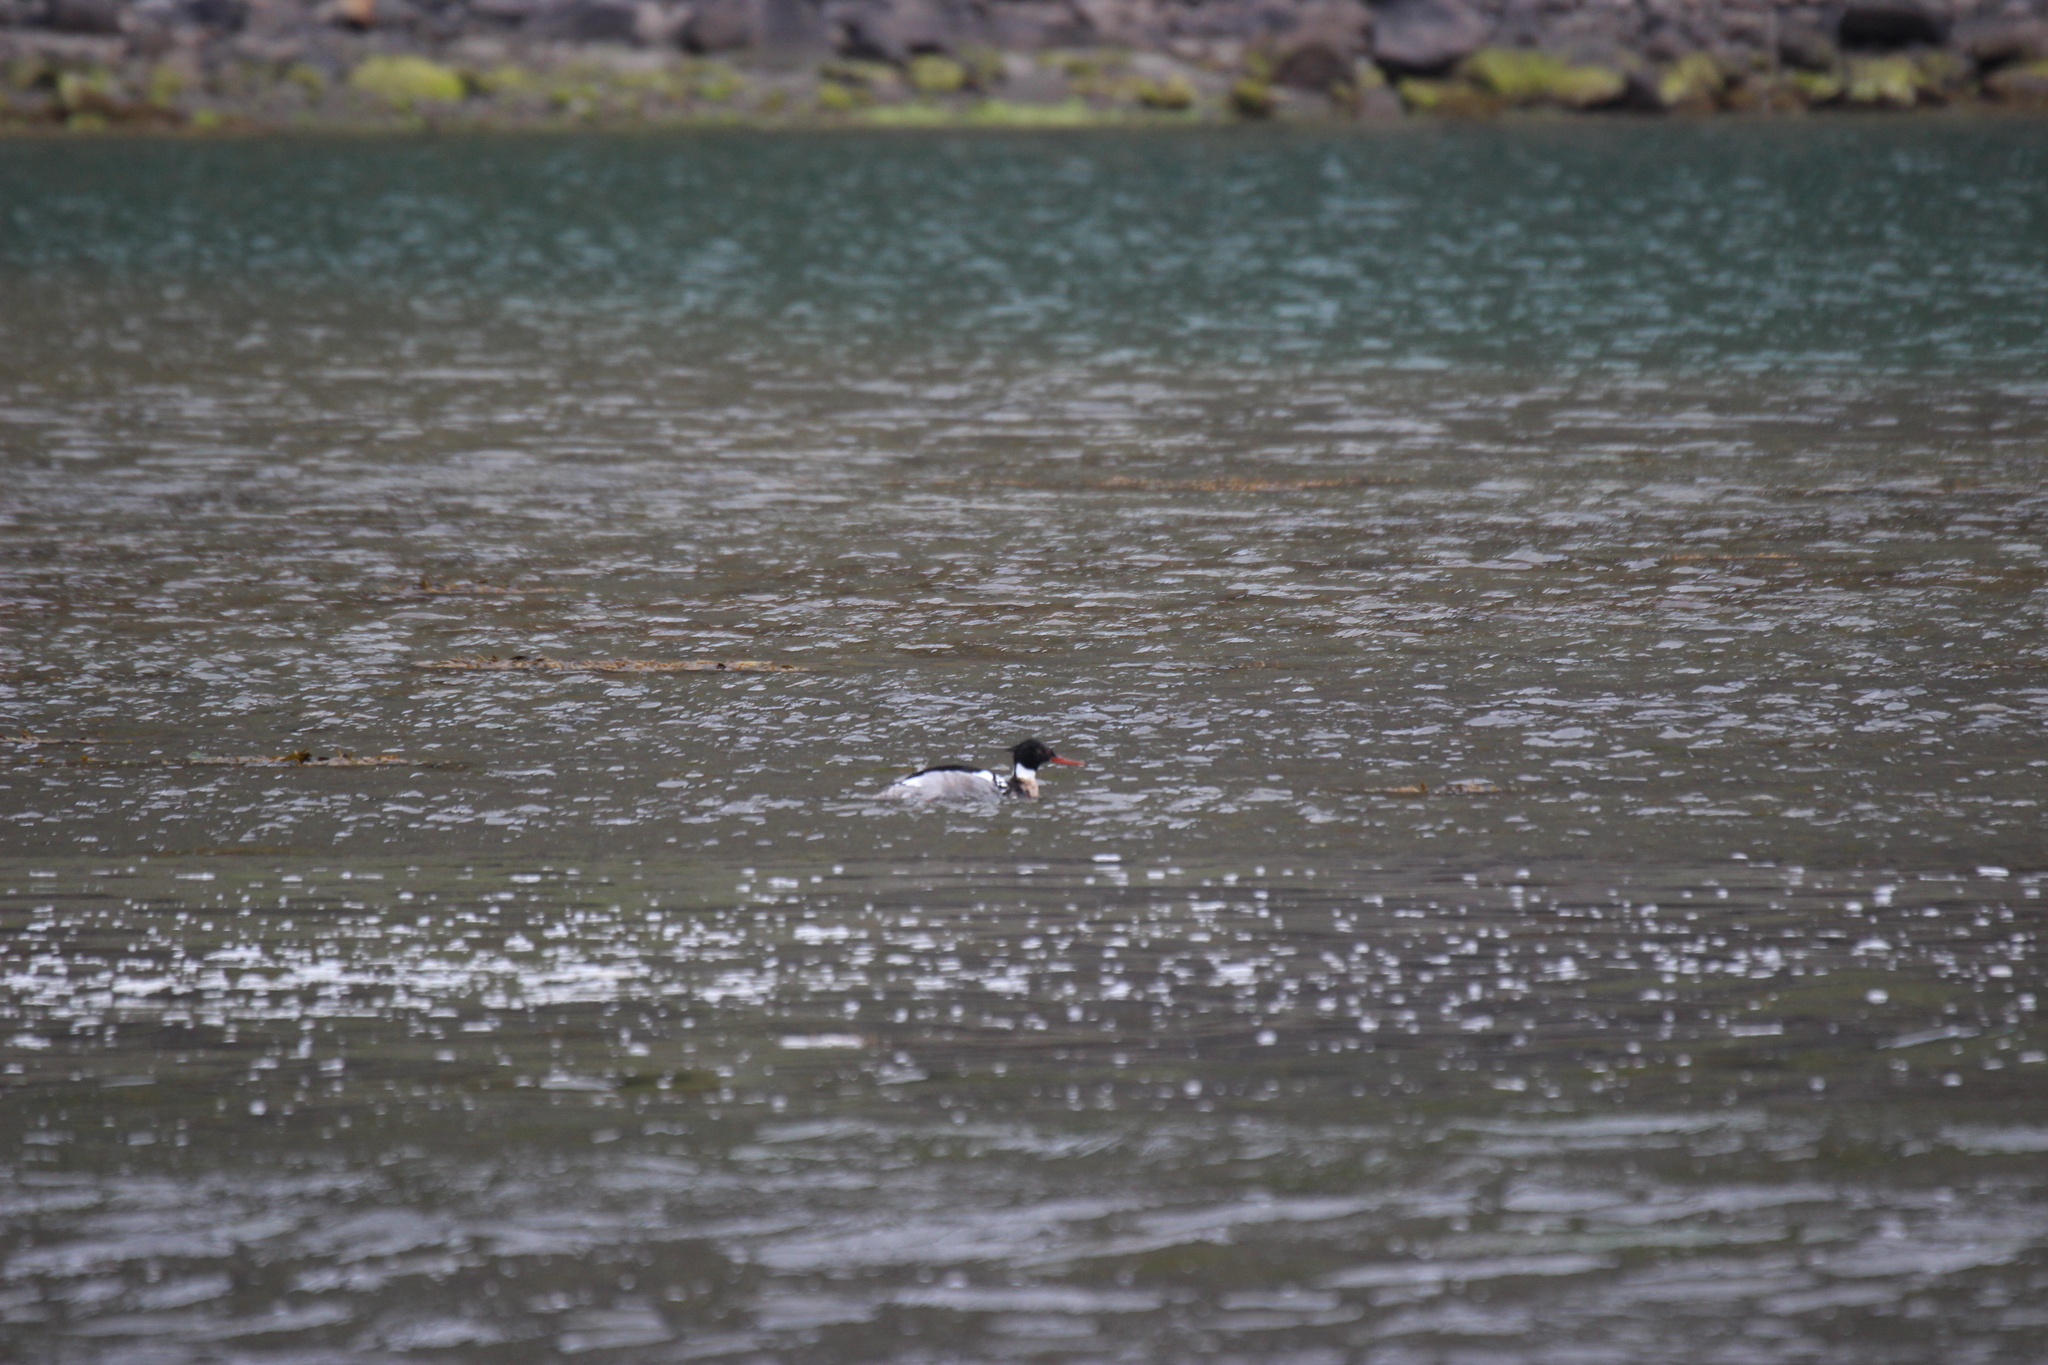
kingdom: Animalia
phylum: Chordata
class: Aves
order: Anseriformes
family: Anatidae
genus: Mergus
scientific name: Mergus serrator
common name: Red-breasted merganser
